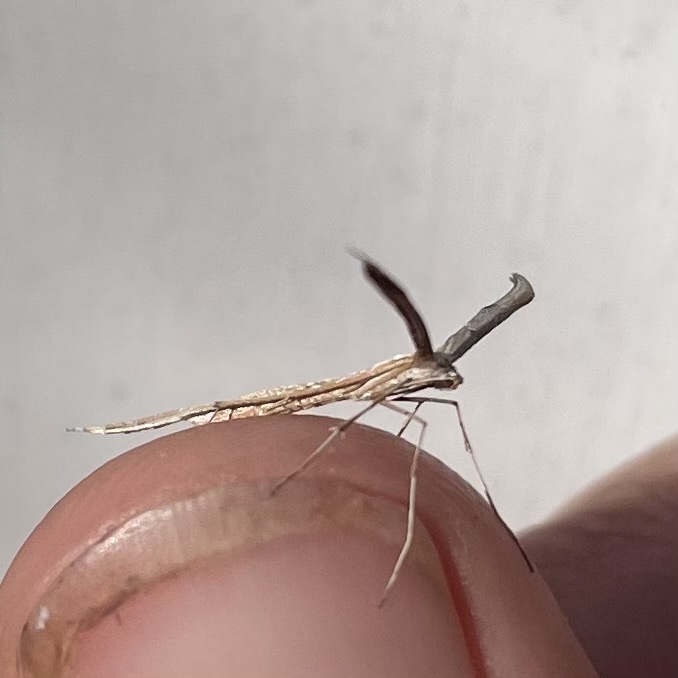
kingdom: Animalia
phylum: Arthropoda
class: Insecta
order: Lepidoptera
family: Pterophoridae
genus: Emmelina
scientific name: Emmelina monodactyla
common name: Common plume
